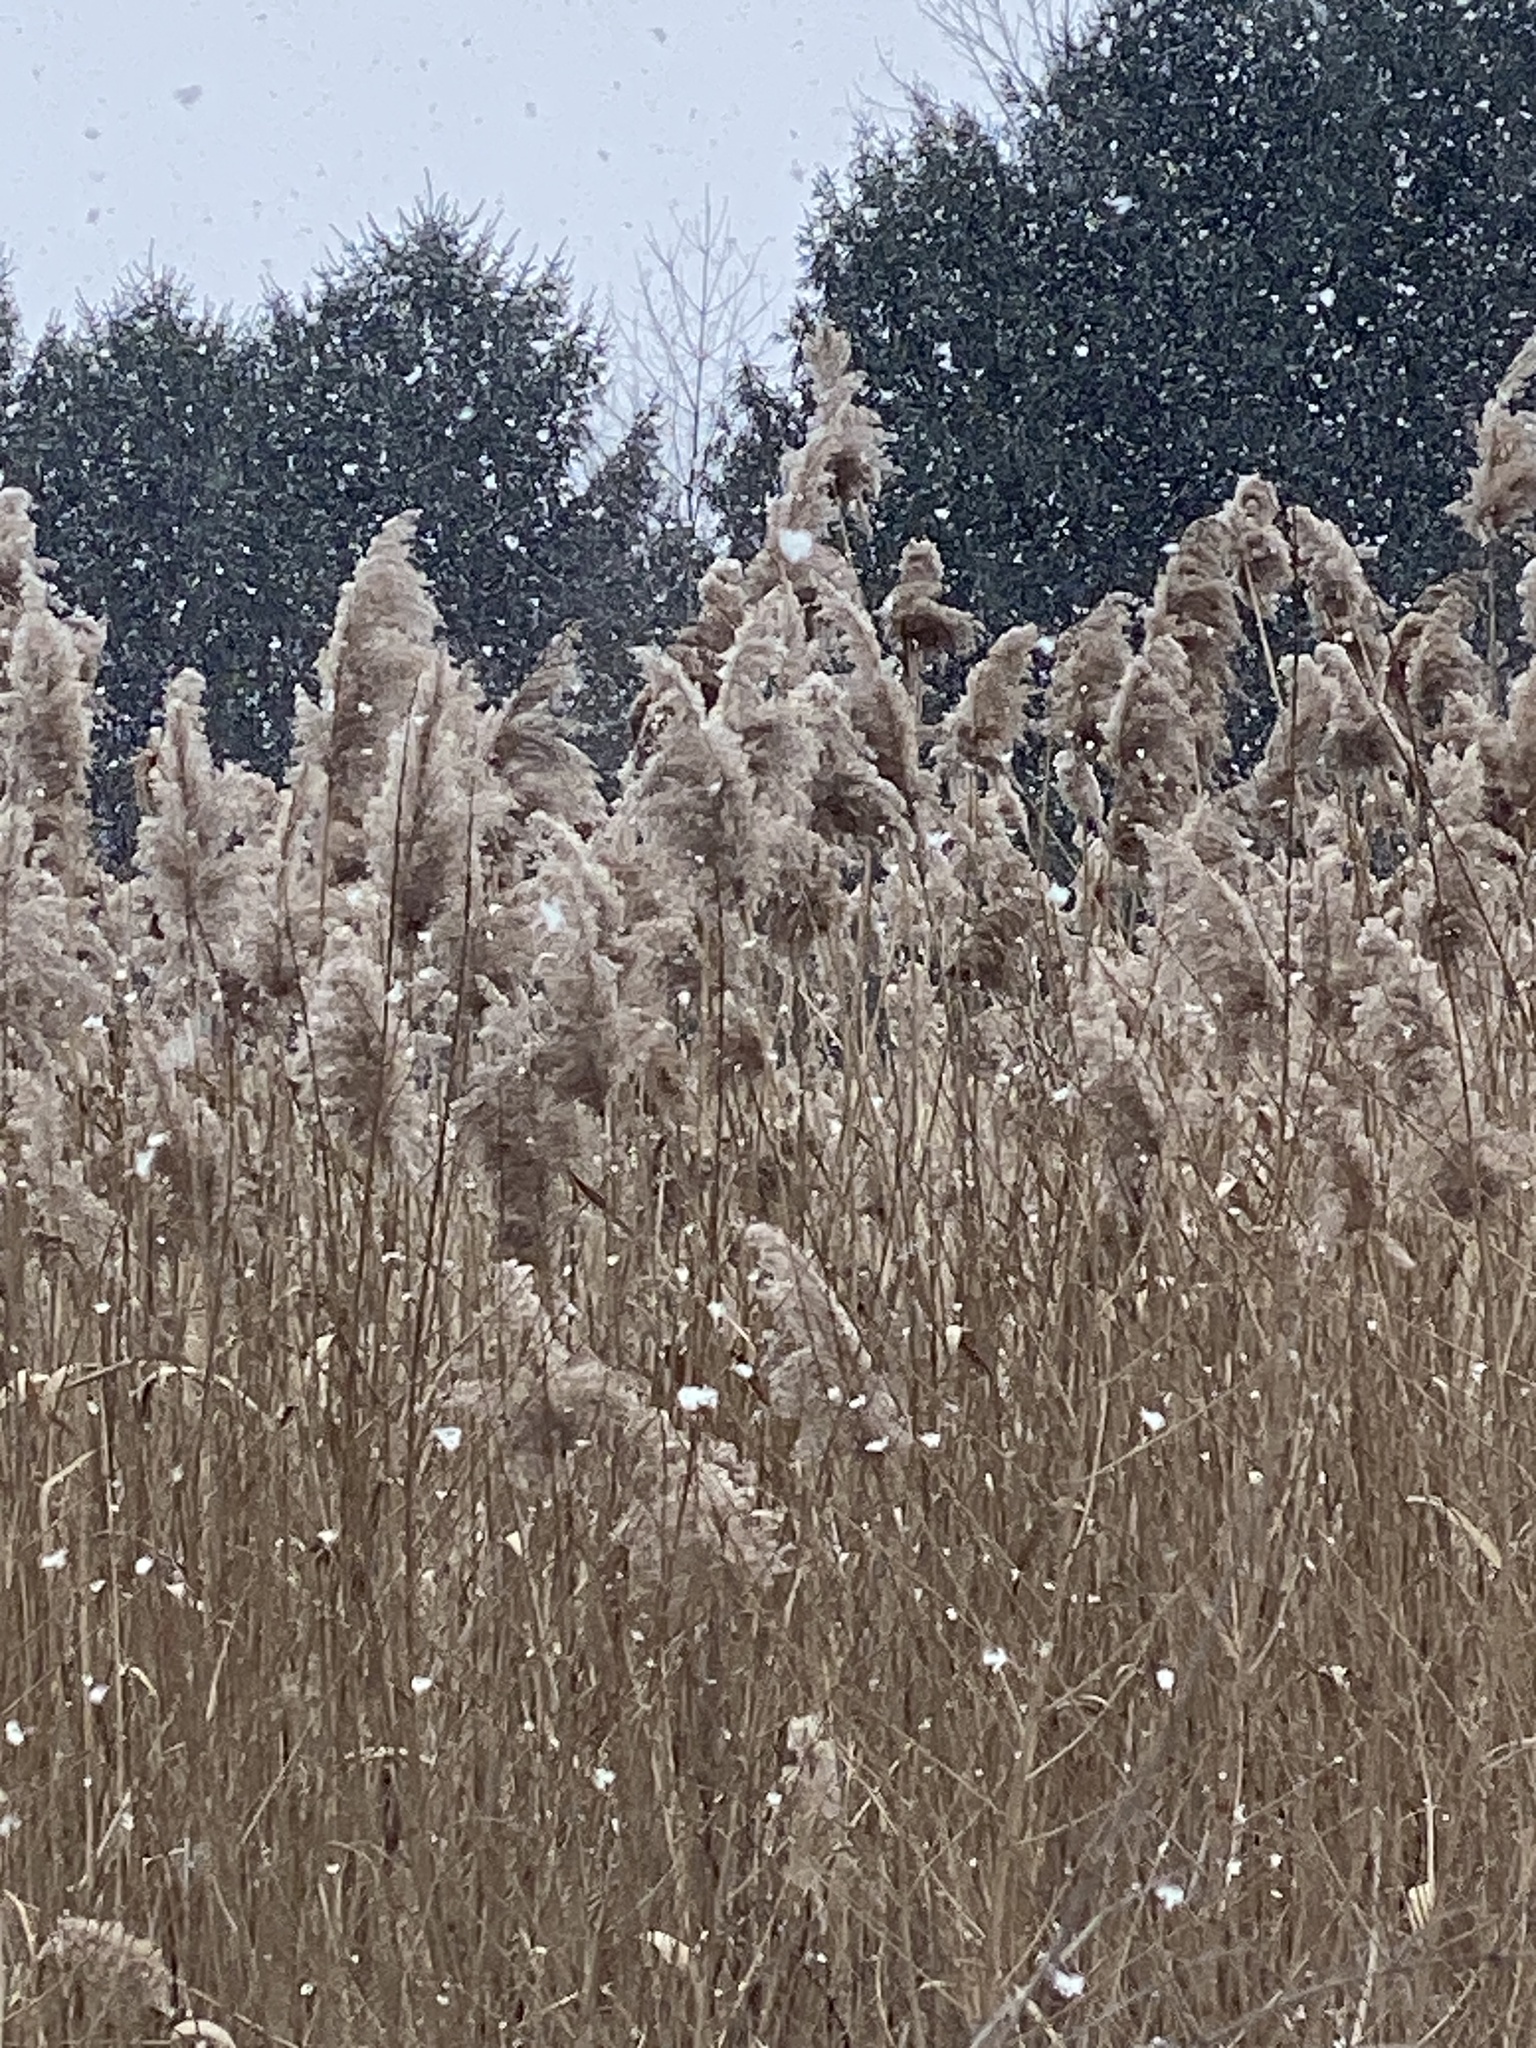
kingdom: Plantae
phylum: Tracheophyta
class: Liliopsida
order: Poales
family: Poaceae
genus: Phragmites
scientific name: Phragmites australis
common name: Common reed
